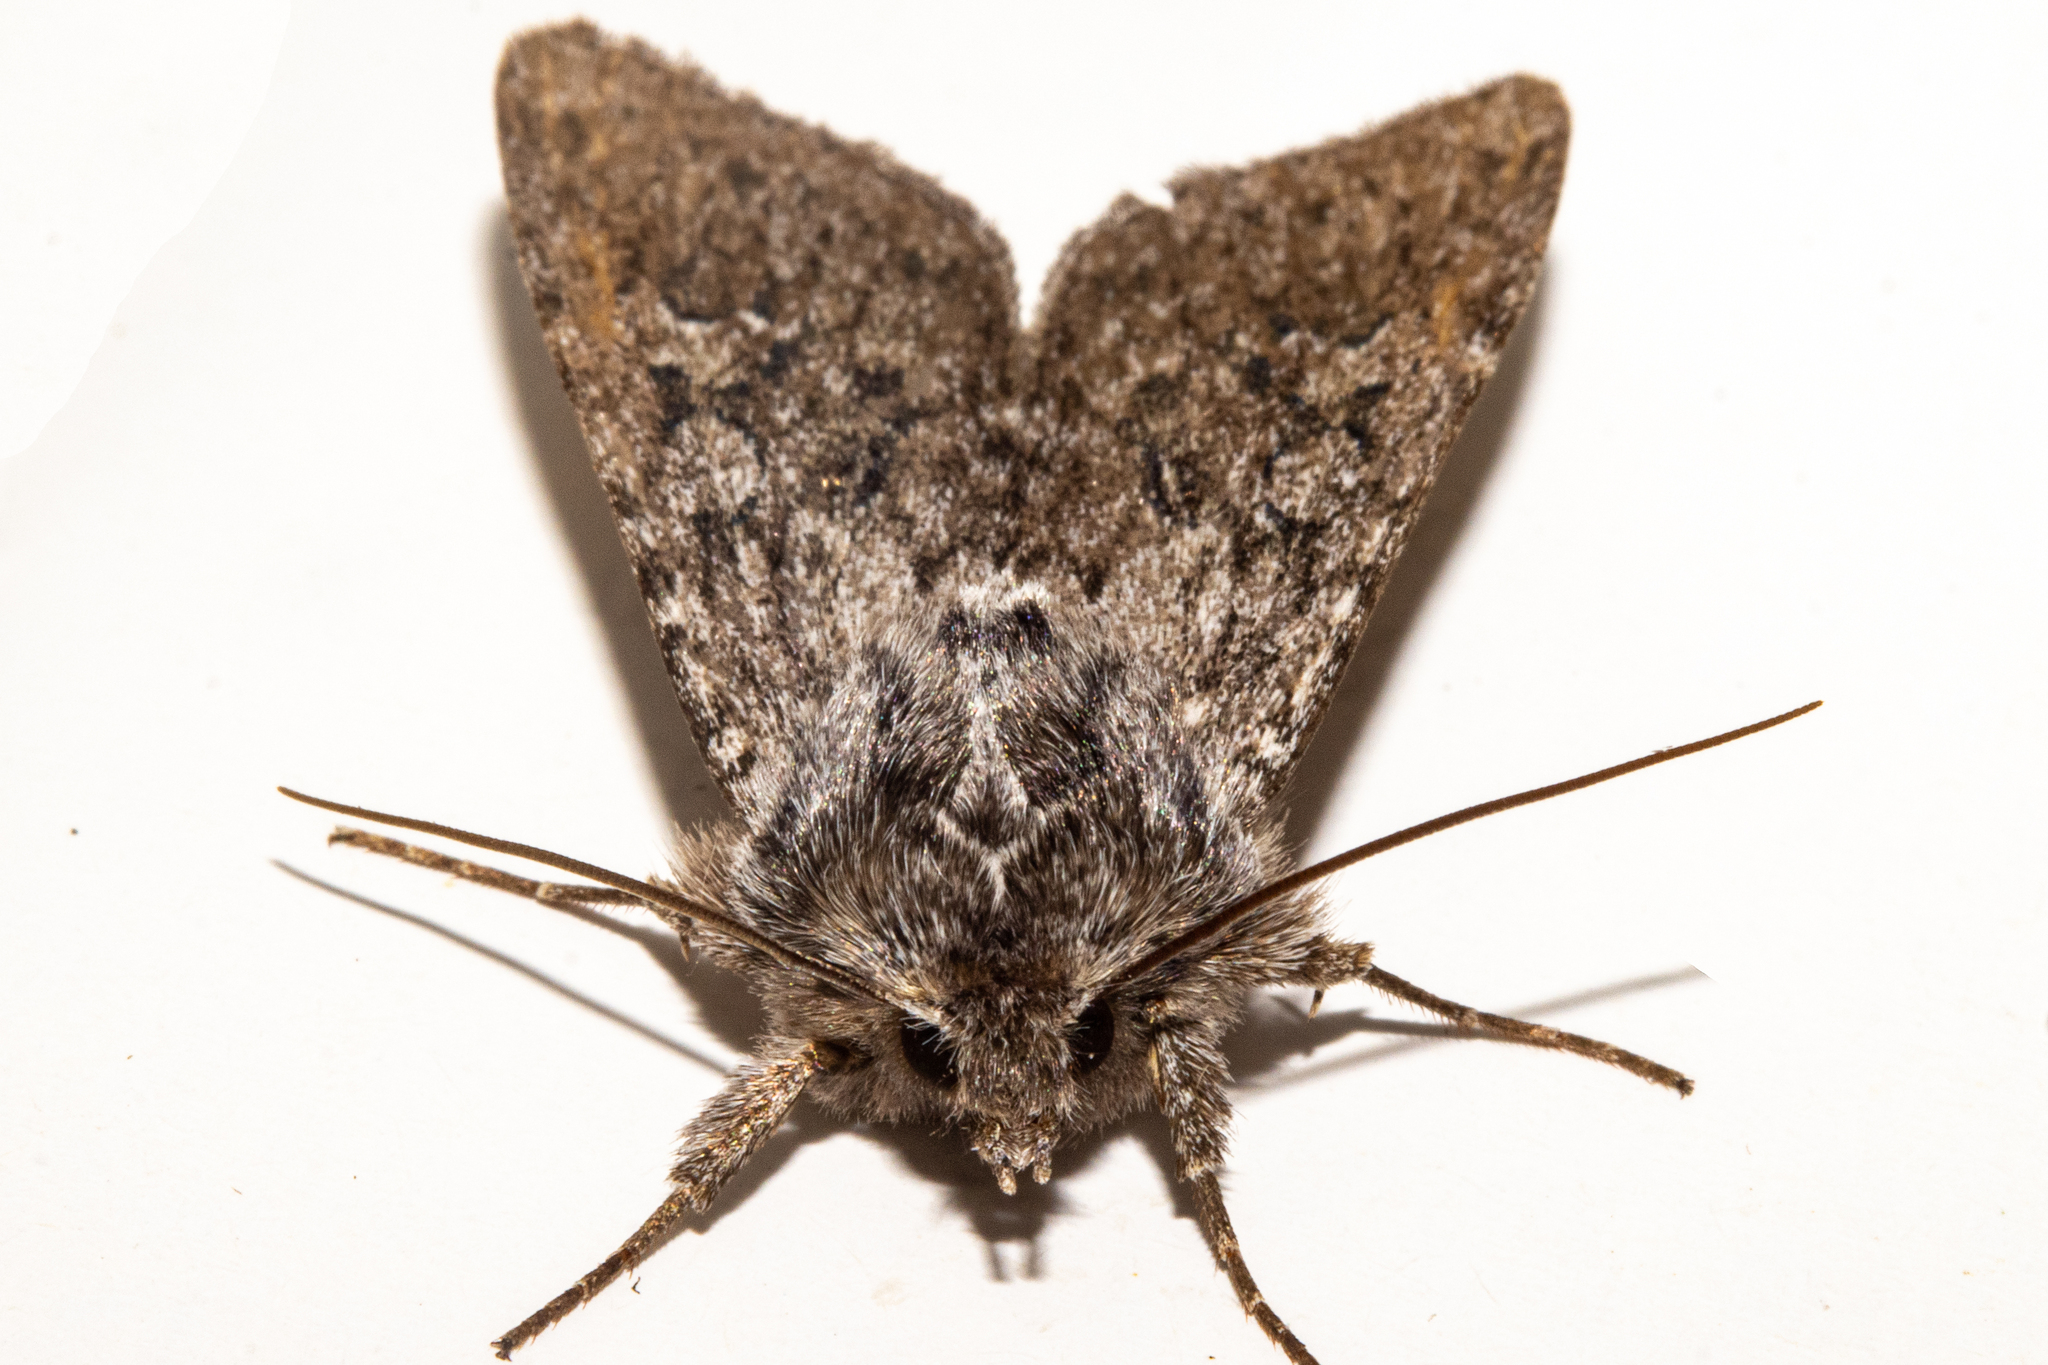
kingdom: Animalia
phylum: Arthropoda
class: Insecta
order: Lepidoptera
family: Noctuidae
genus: Physetica
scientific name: Physetica
